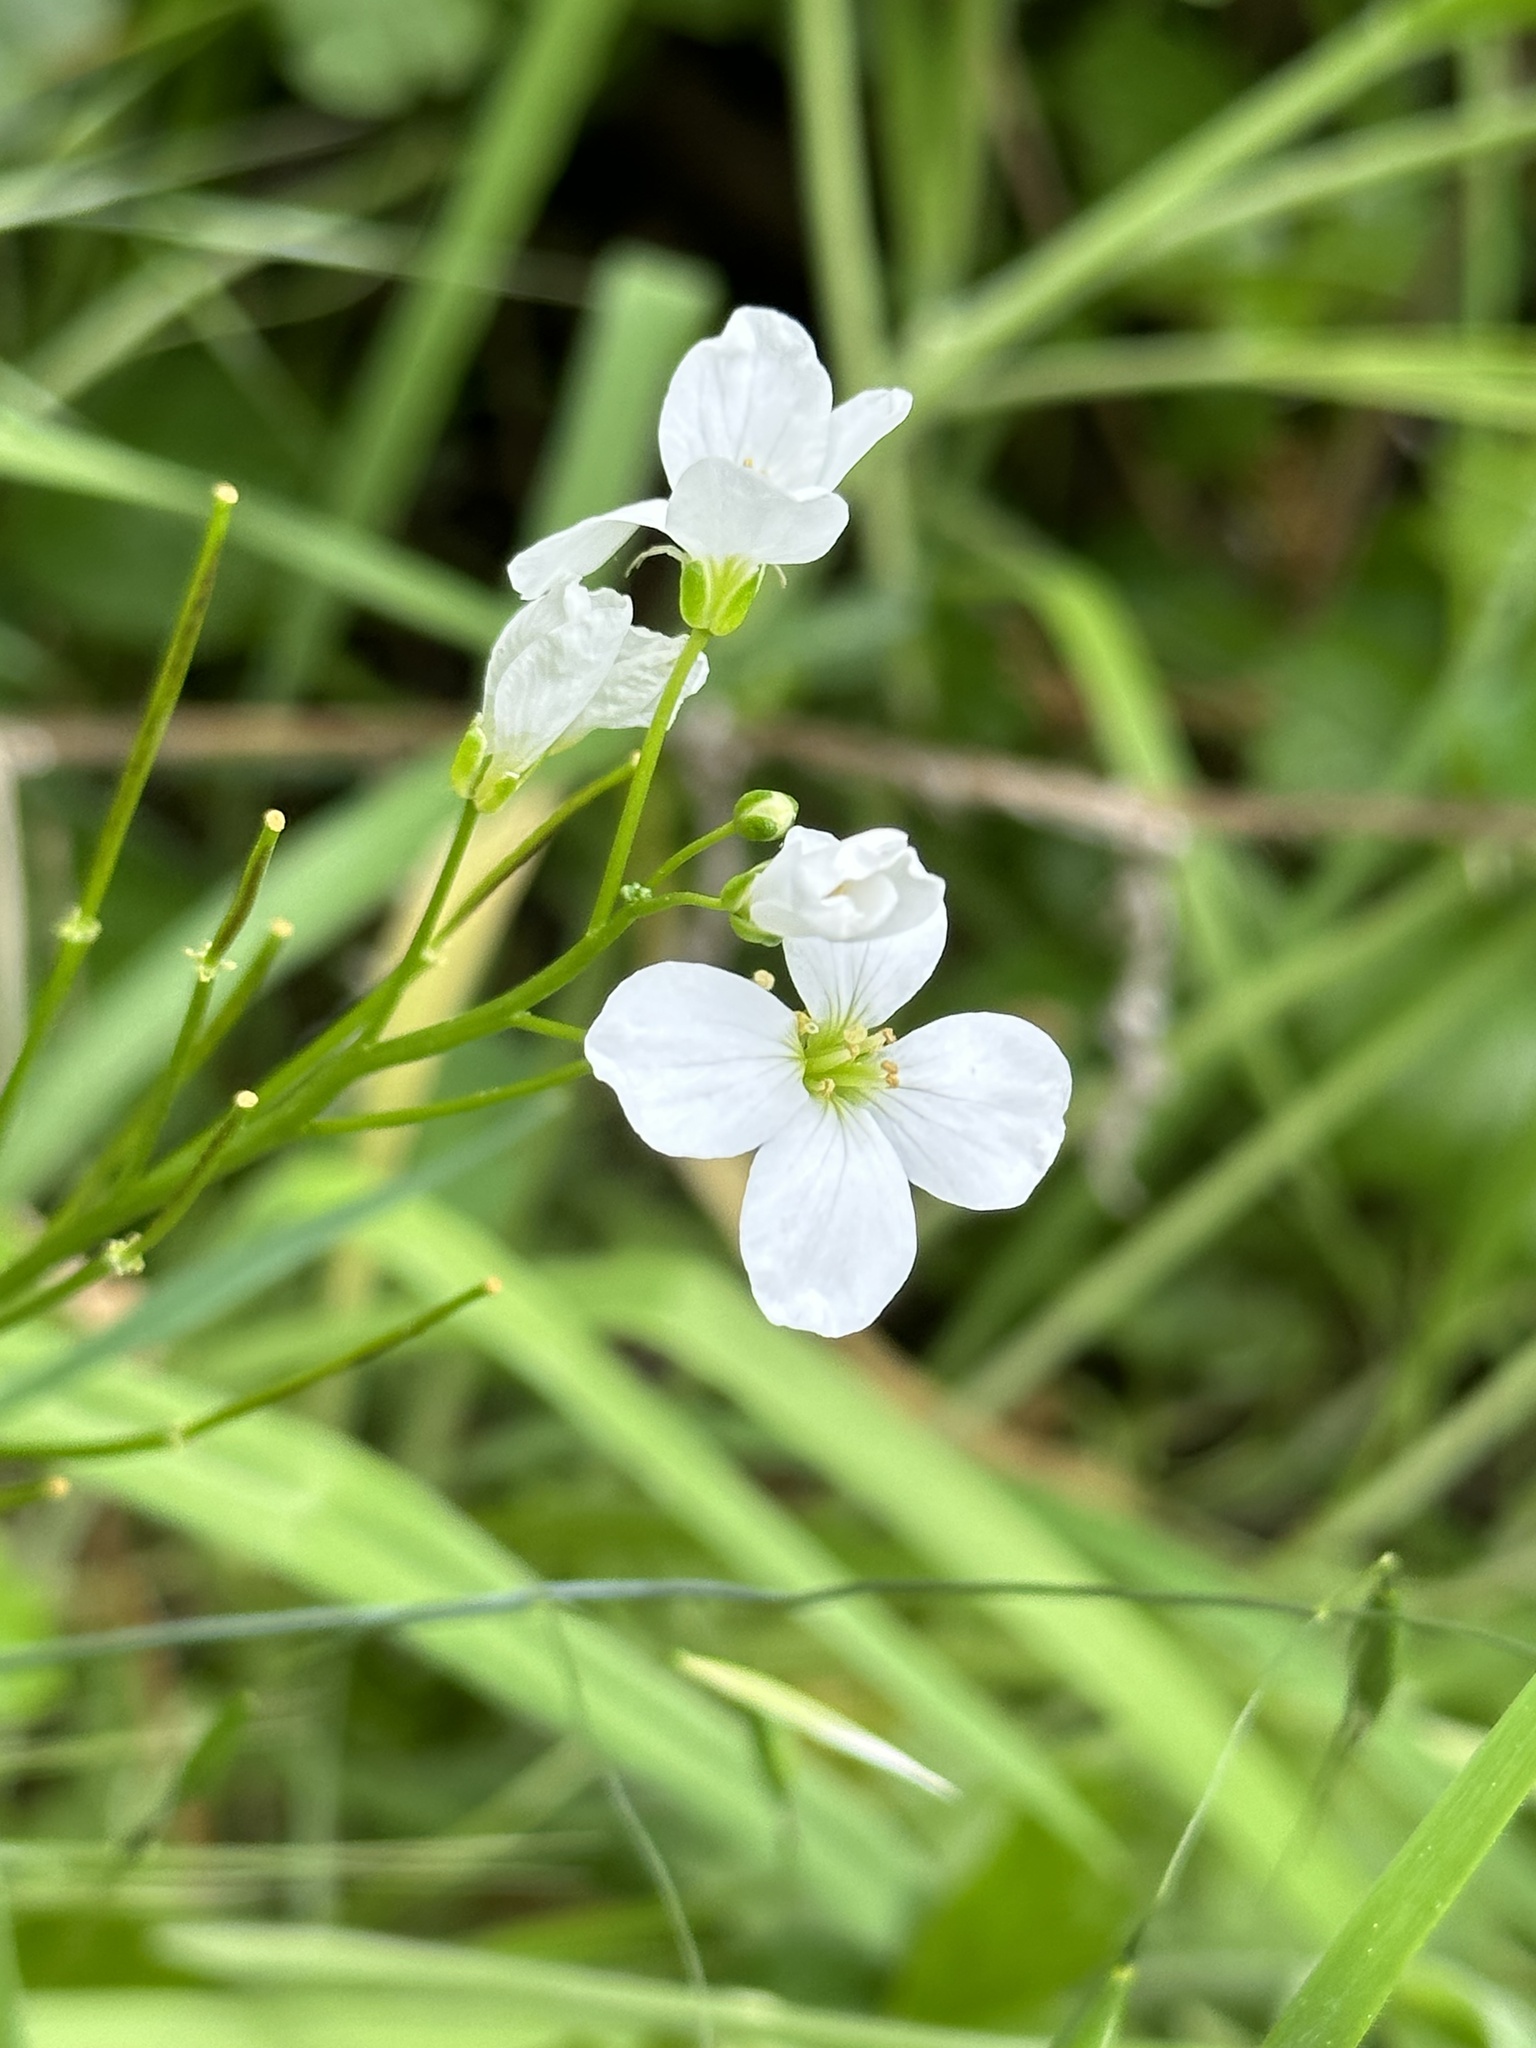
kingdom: Plantae
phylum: Tracheophyta
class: Magnoliopsida
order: Brassicales
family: Brassicaceae
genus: Cardamine
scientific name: Cardamine californica
